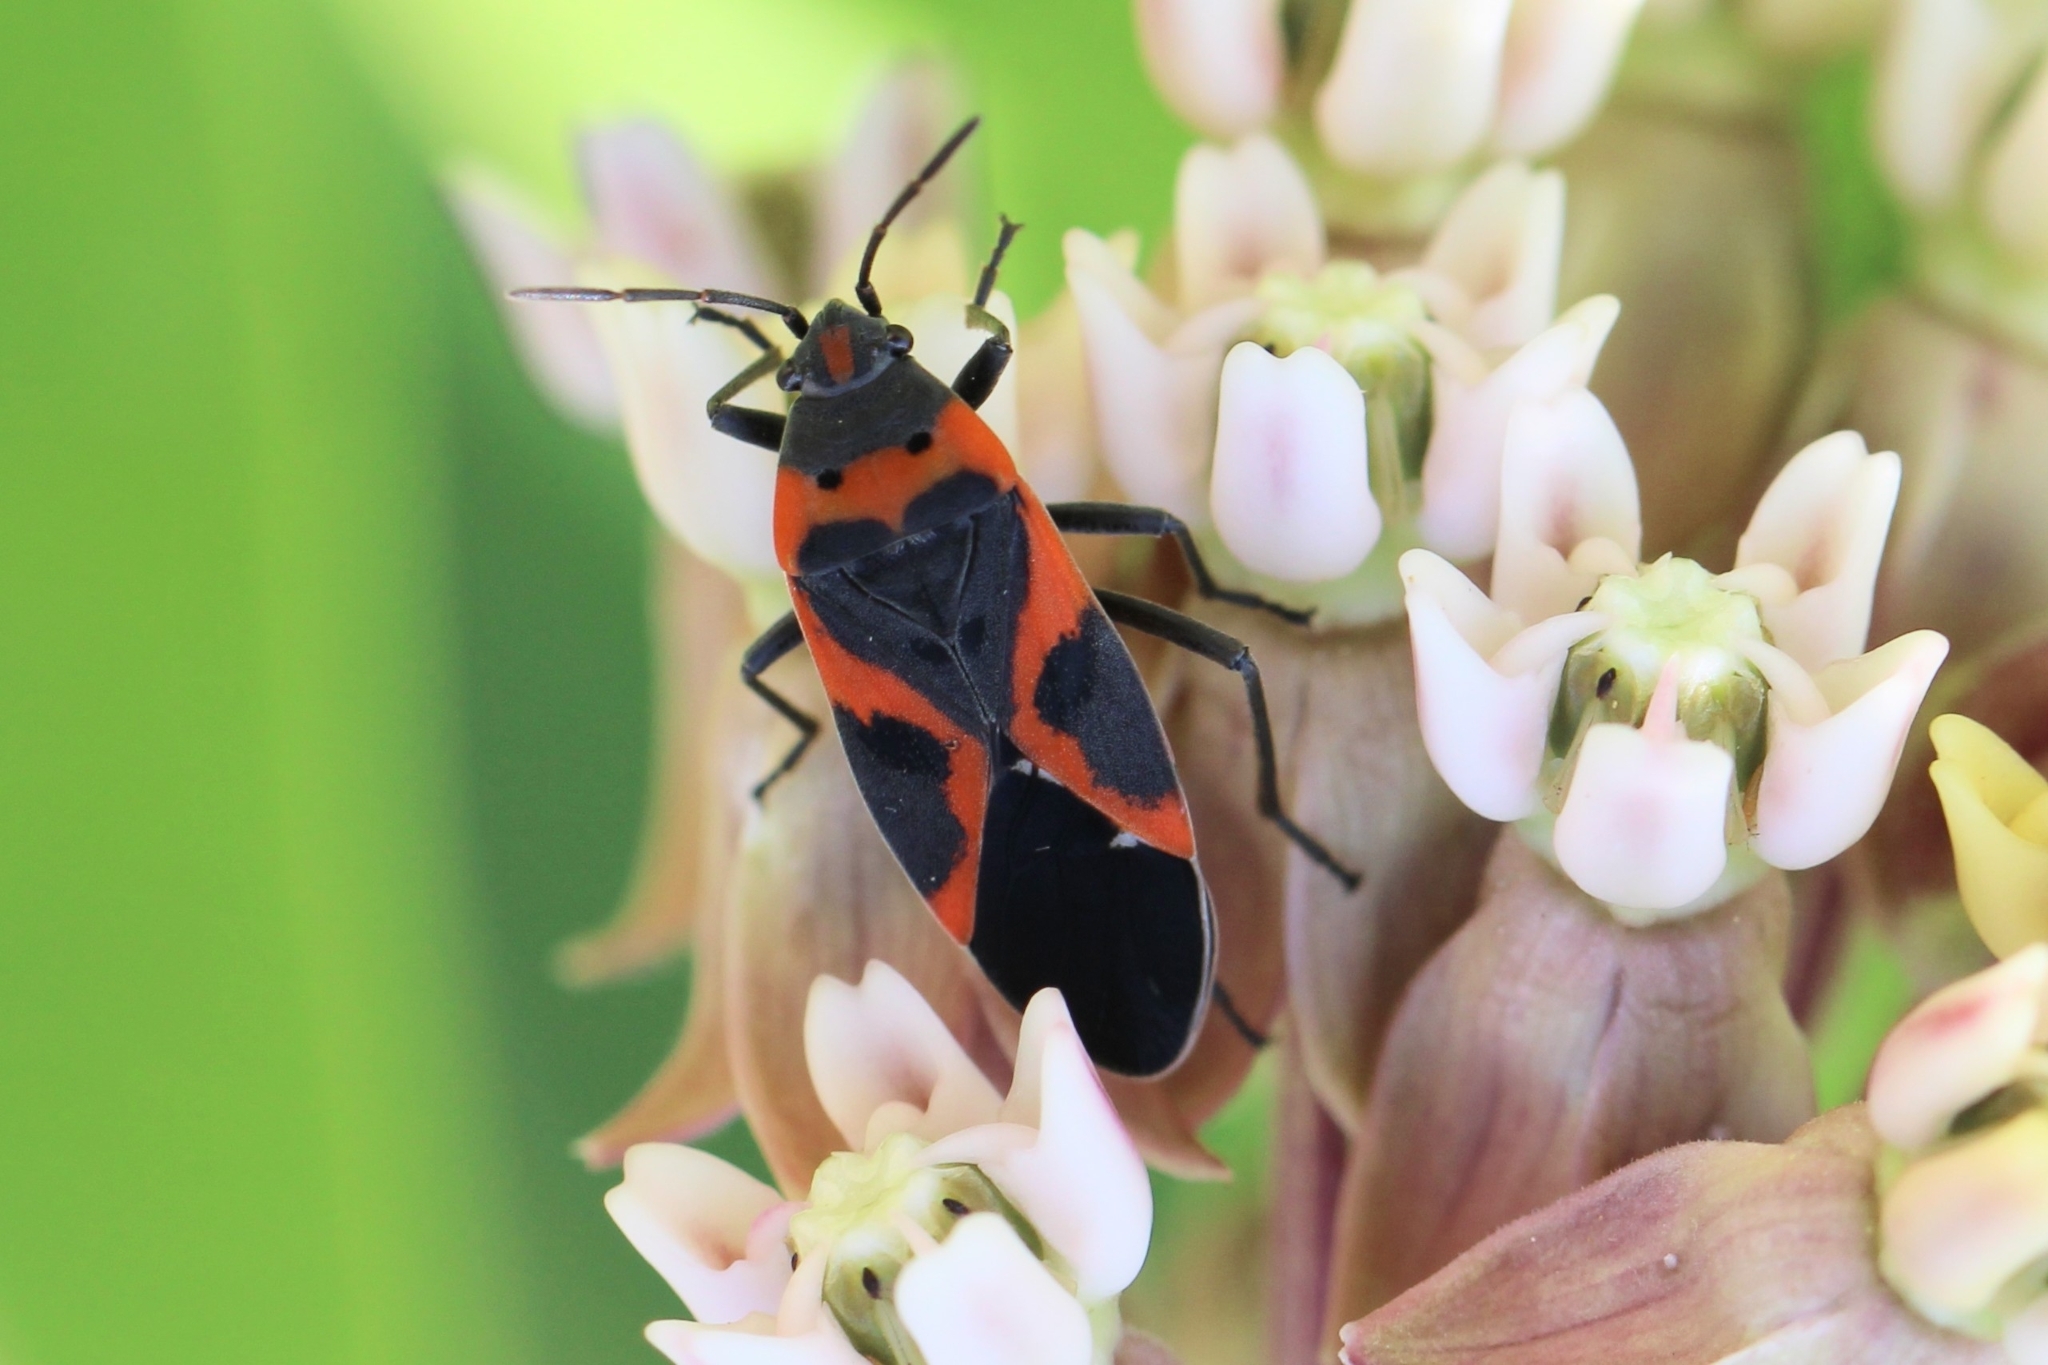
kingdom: Animalia
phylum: Arthropoda
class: Insecta
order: Hemiptera
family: Lygaeidae
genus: Lygaeus
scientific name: Lygaeus kalmii
